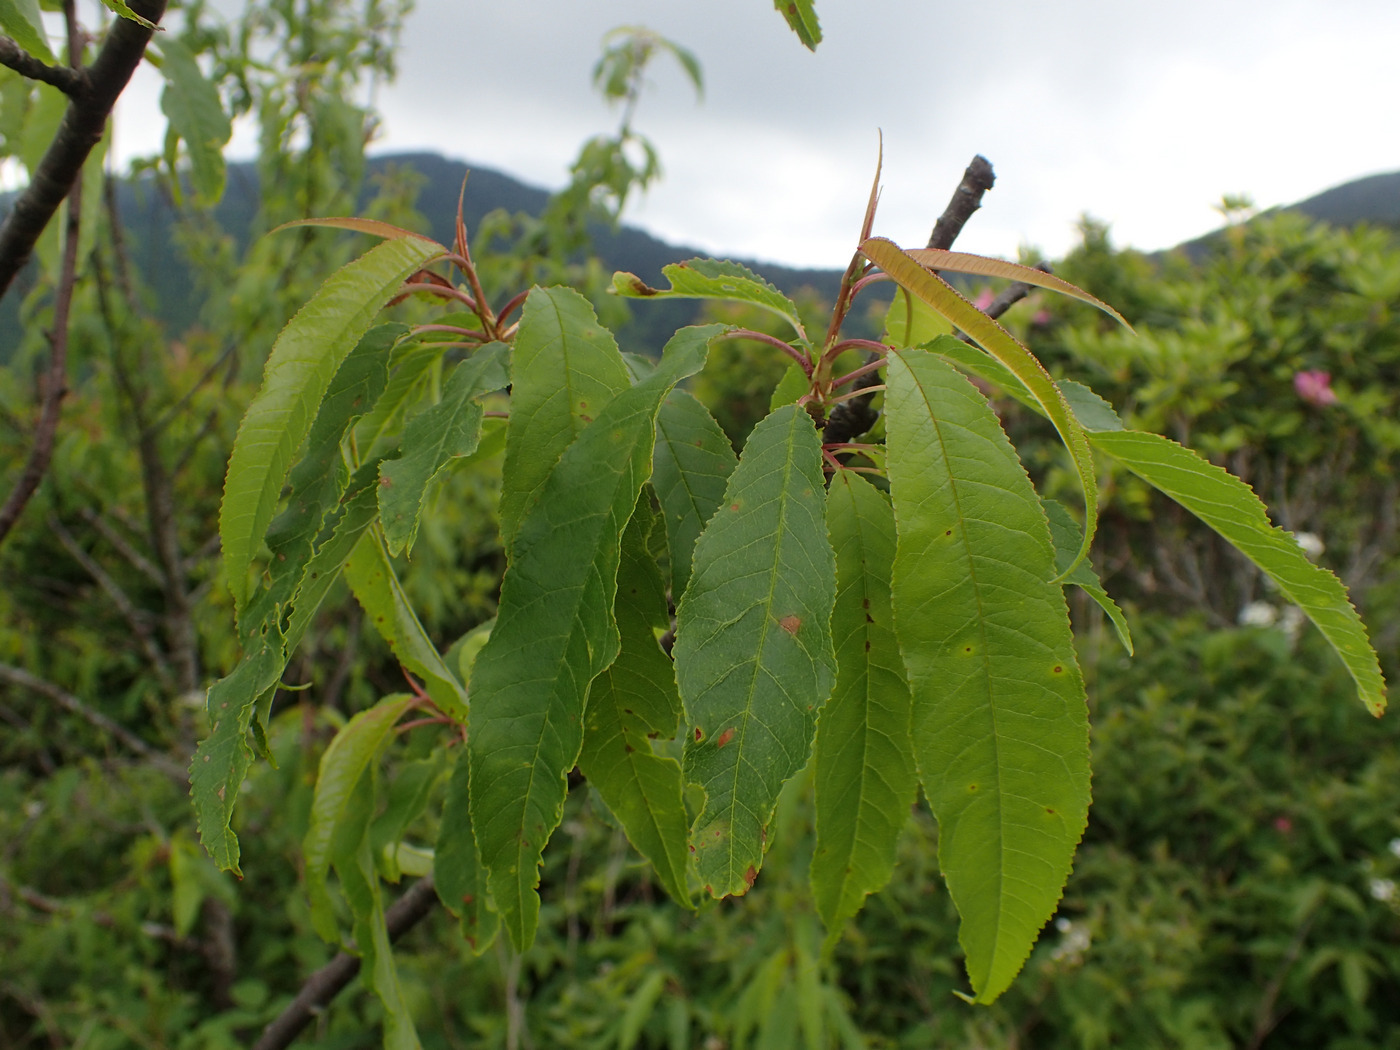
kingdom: Plantae
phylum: Tracheophyta
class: Magnoliopsida
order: Rosales
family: Rosaceae
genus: Prunus
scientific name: Prunus pensylvanica
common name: Pin cherry
